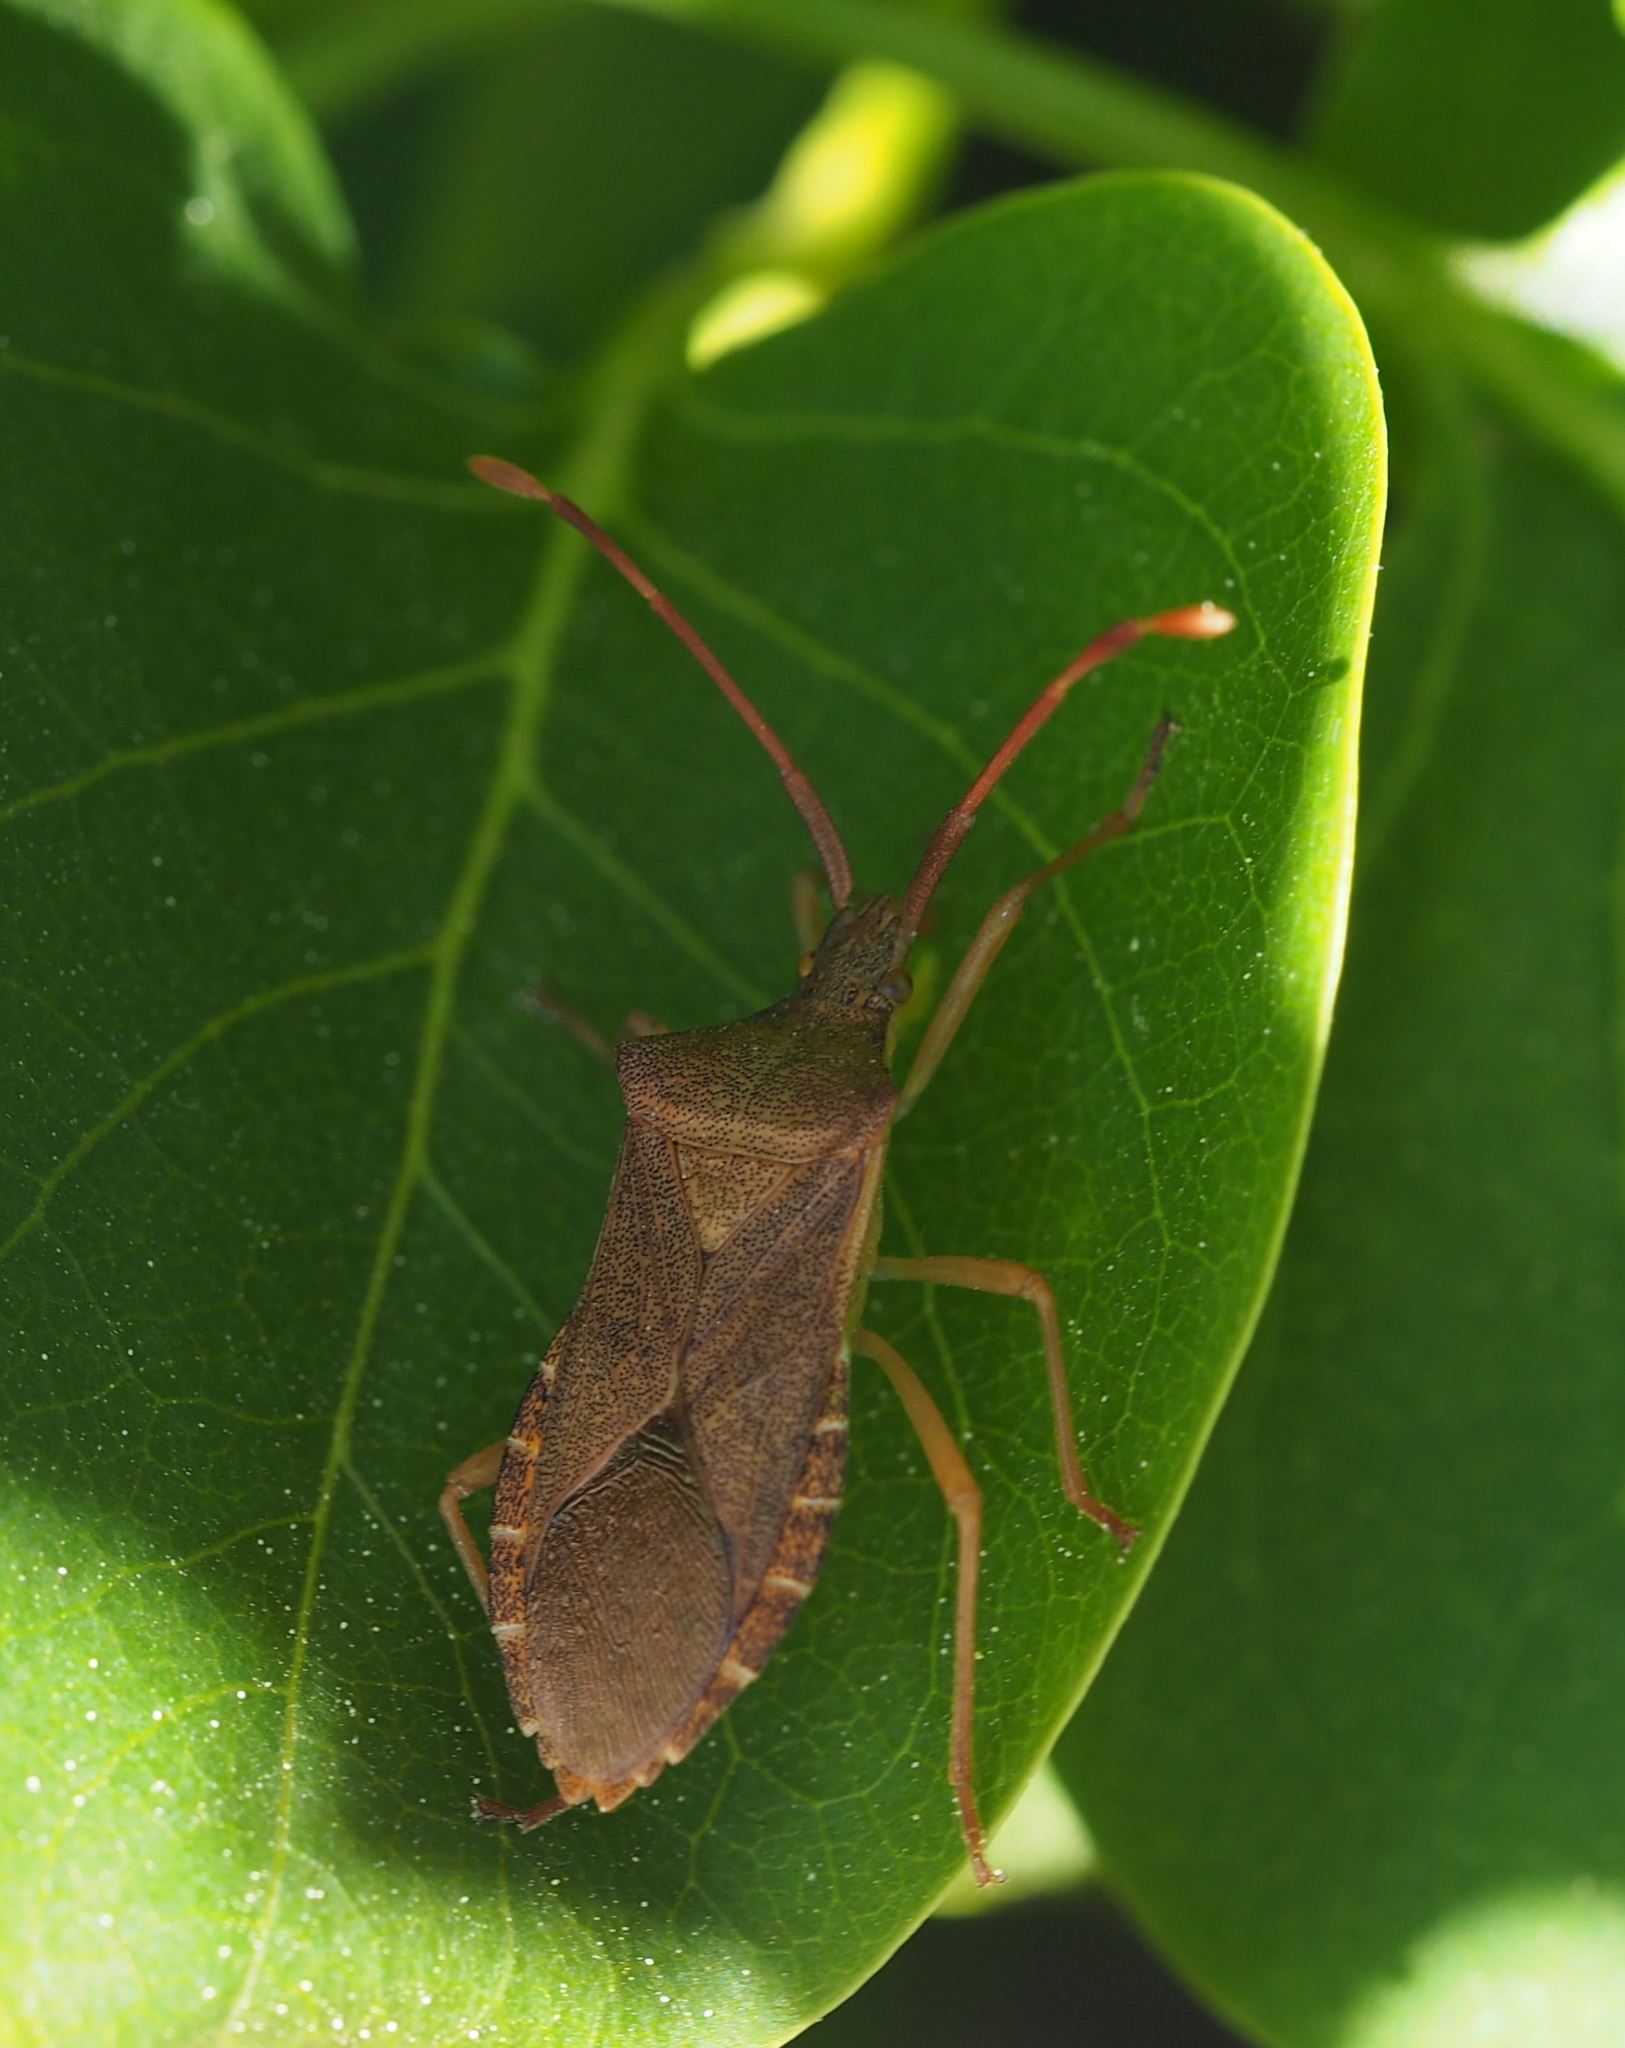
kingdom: Animalia
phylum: Arthropoda
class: Insecta
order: Hemiptera
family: Coreidae
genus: Gonocerus
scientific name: Gonocerus acuteangulatus
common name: Box bug
